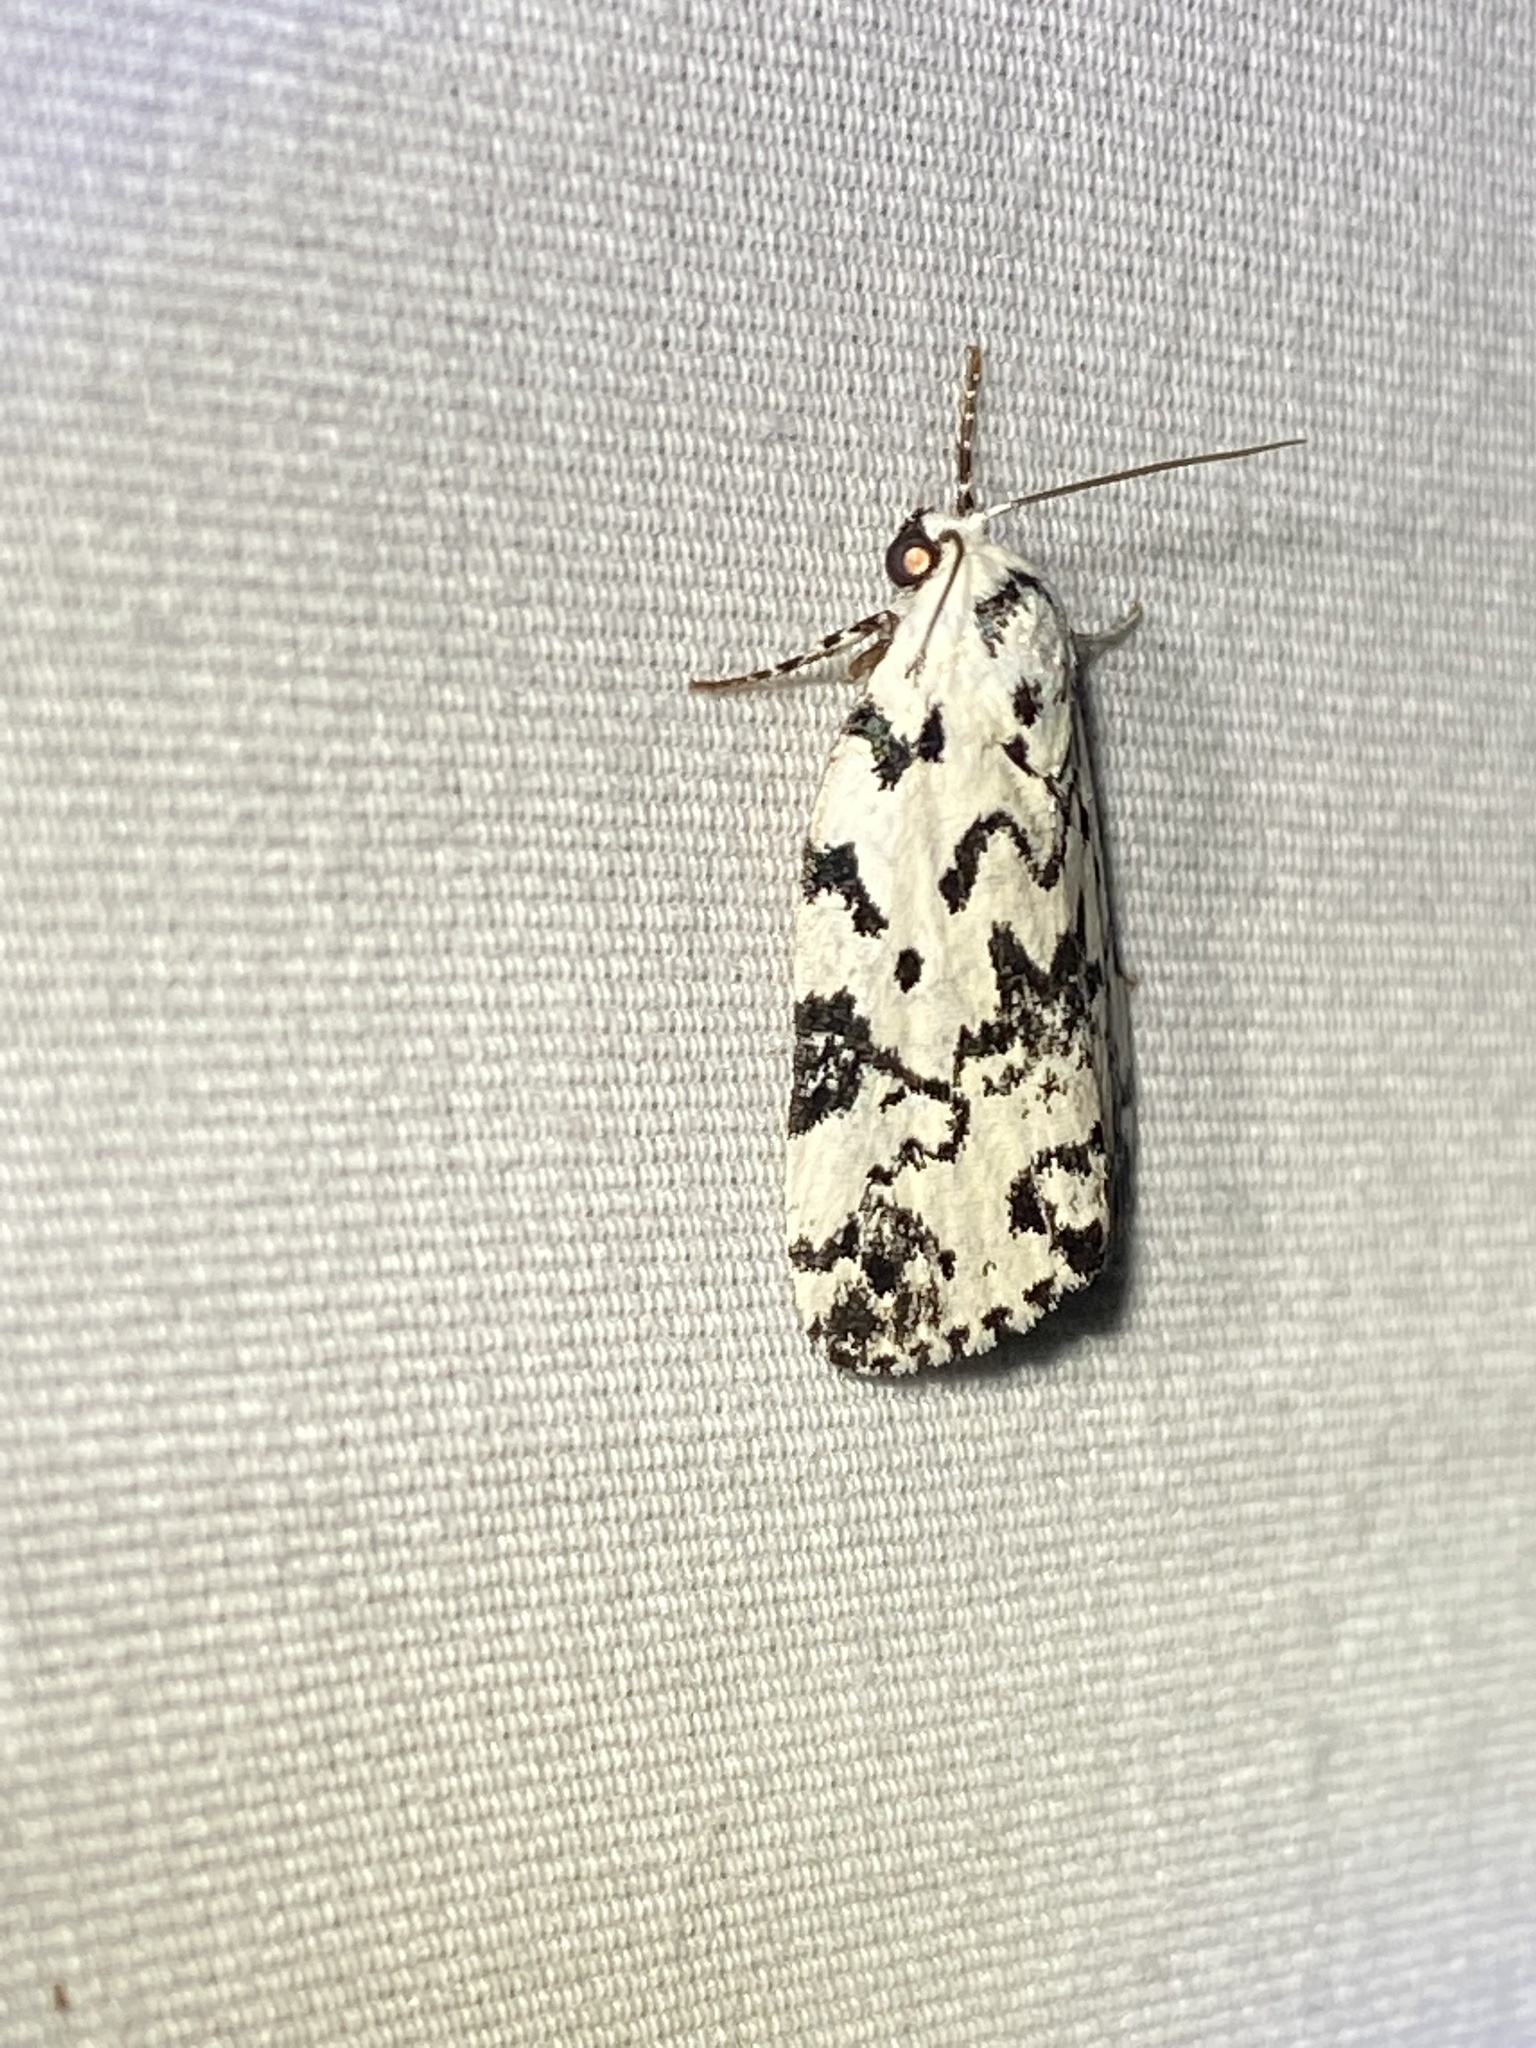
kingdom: Animalia
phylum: Arthropoda
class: Insecta
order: Lepidoptera
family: Noctuidae
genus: Polygrammate
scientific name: Polygrammate hebraeicum
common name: Hebrew moth
